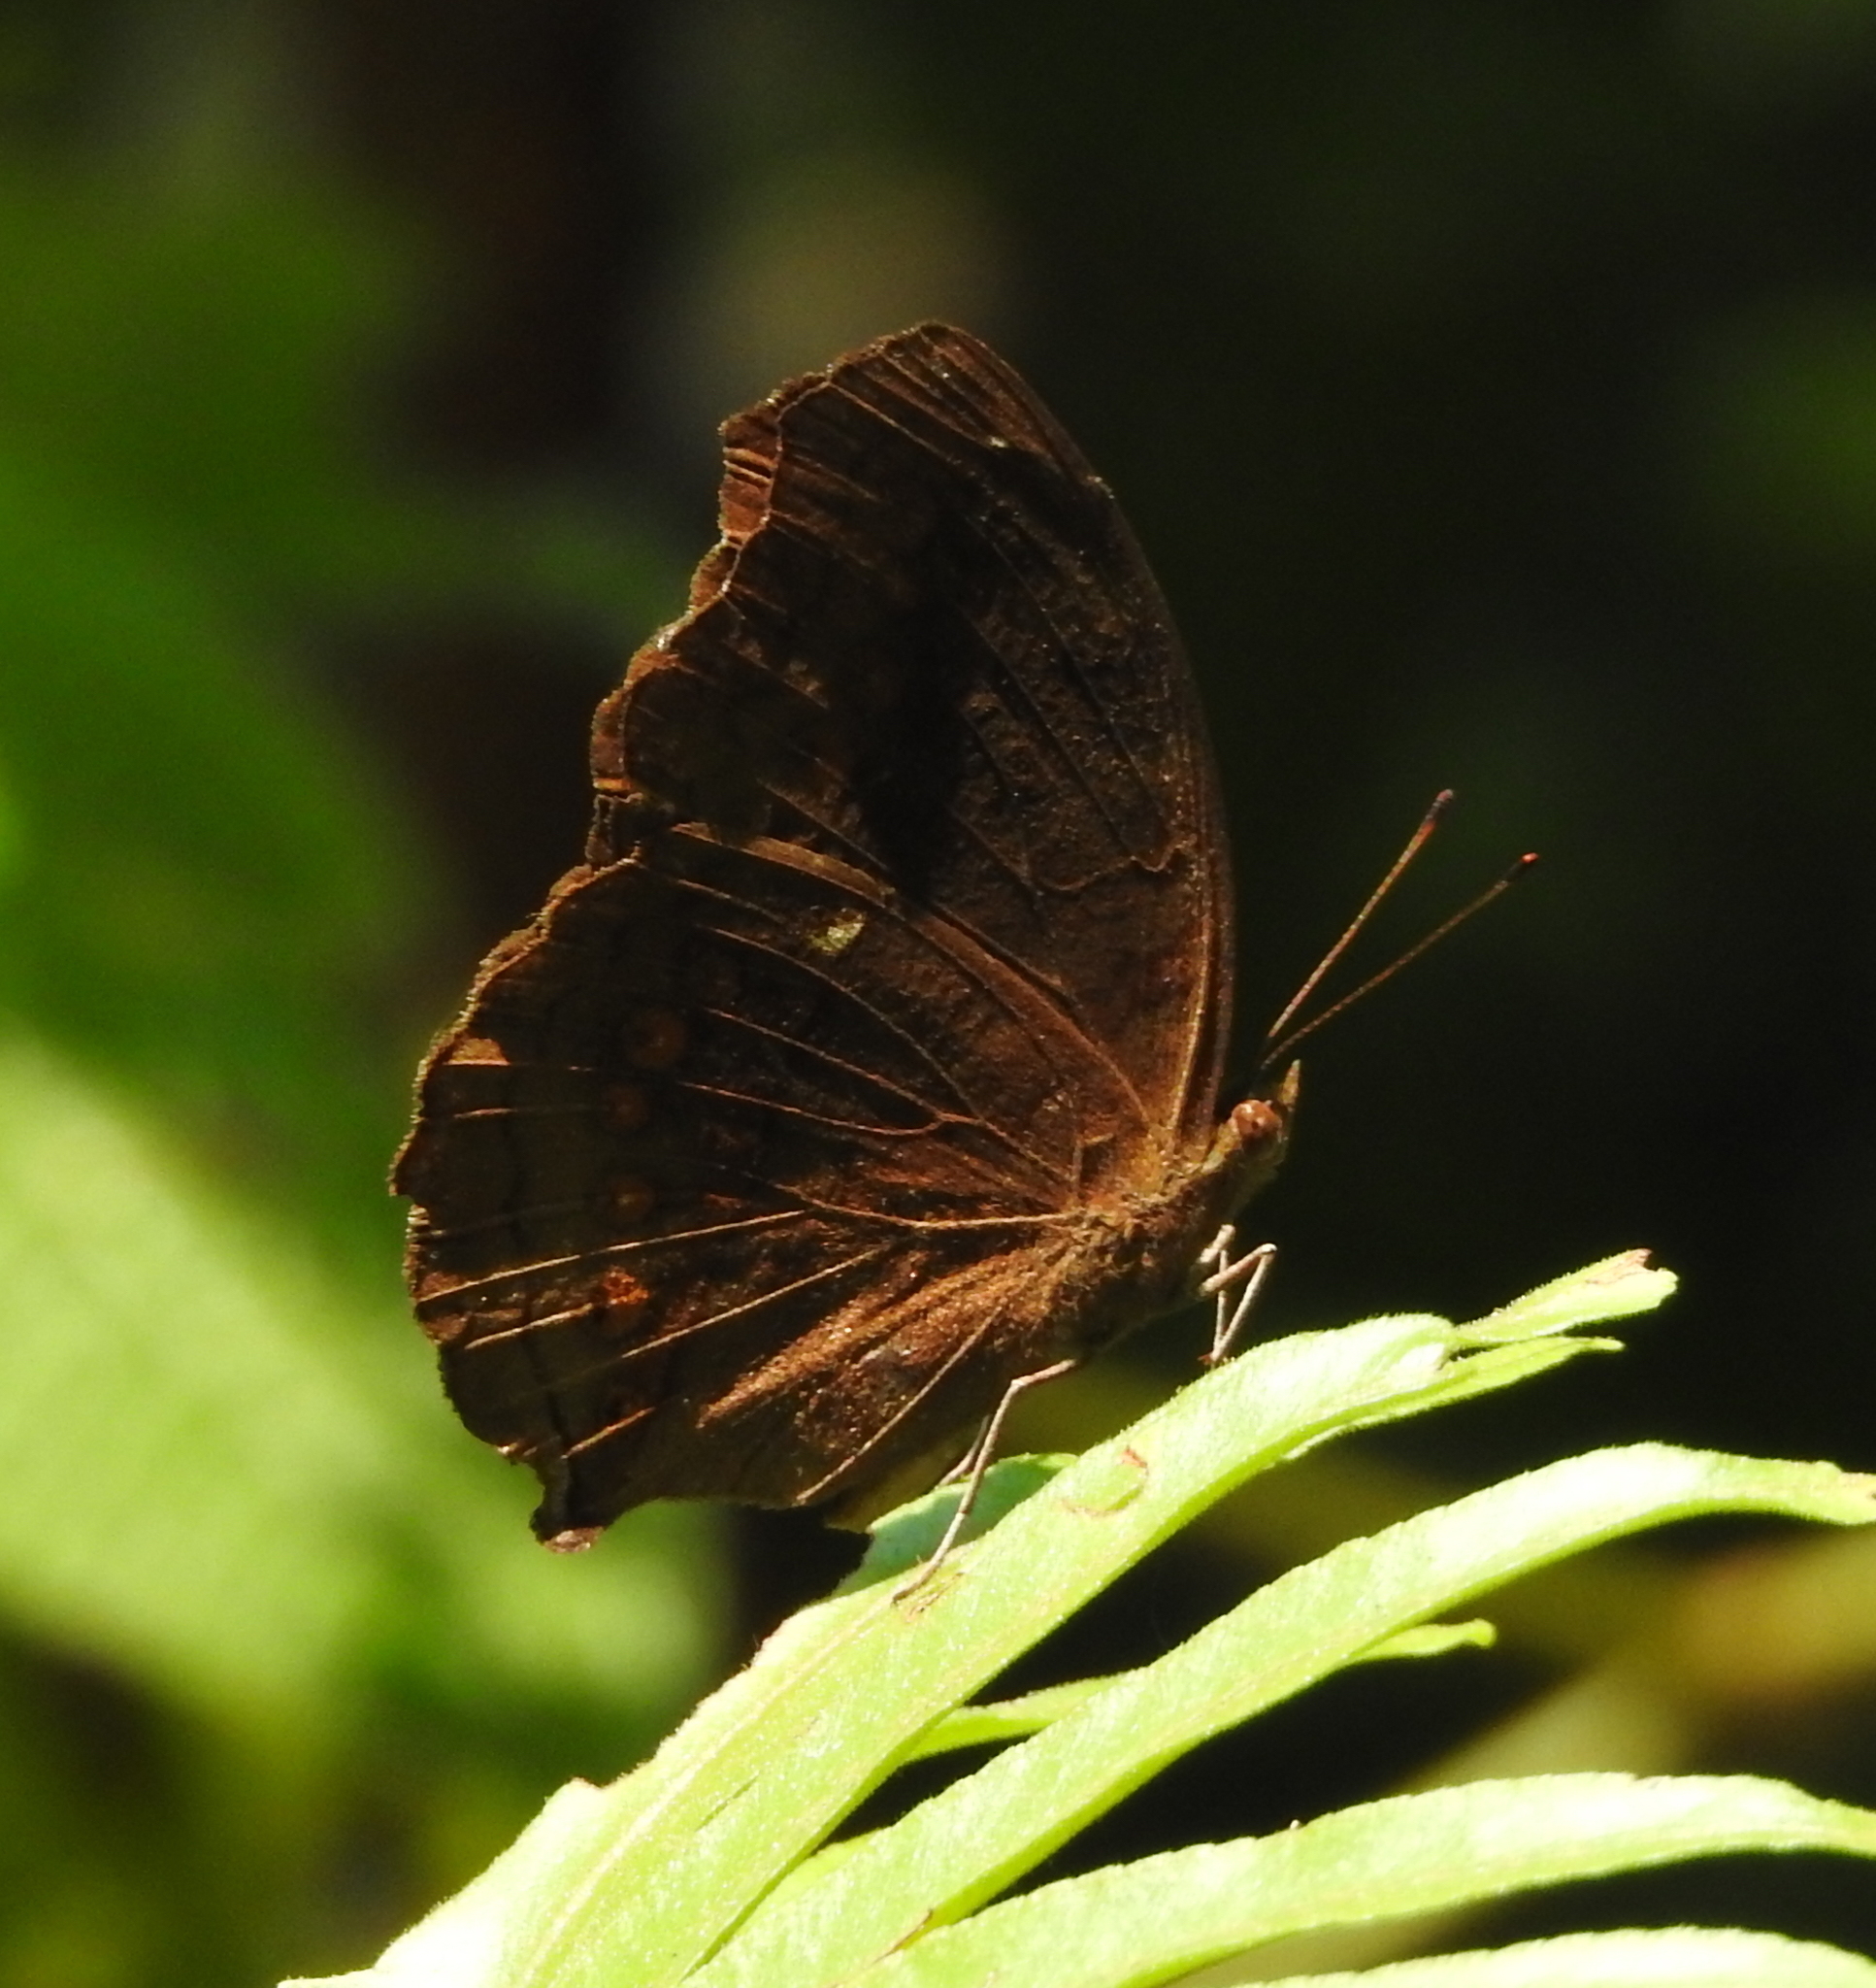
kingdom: Animalia
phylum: Arthropoda
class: Insecta
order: Lepidoptera
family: Nymphalidae
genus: Junonia
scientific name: Junonia hedonia
